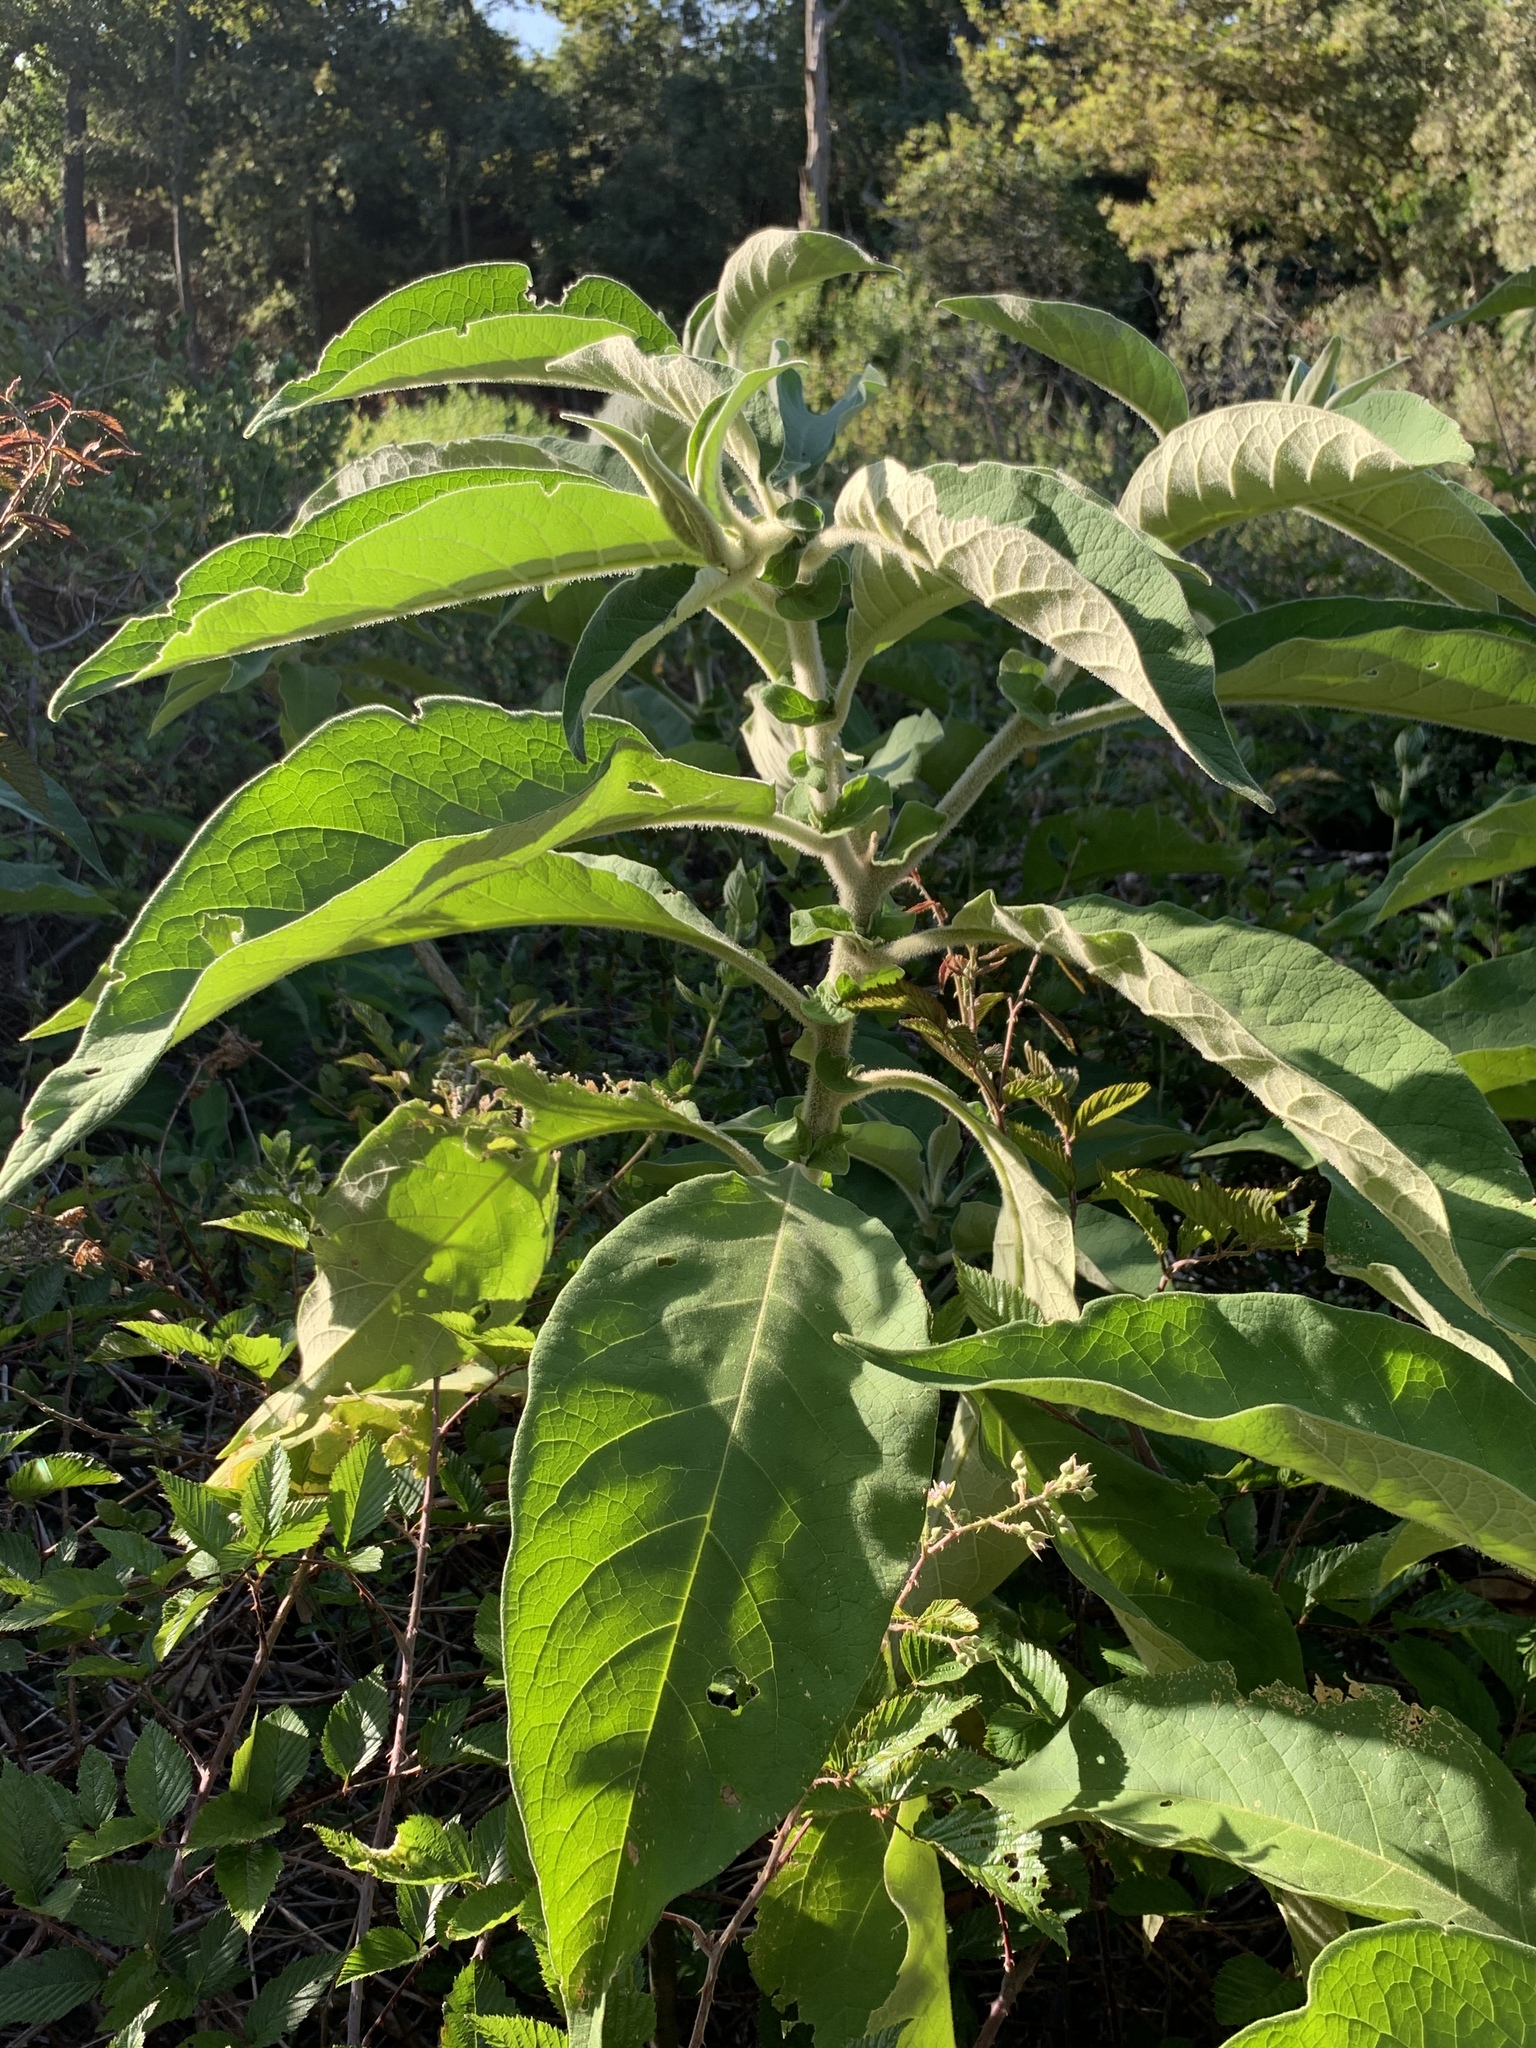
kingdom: Plantae
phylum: Tracheophyta
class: Magnoliopsida
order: Solanales
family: Solanaceae
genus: Solanum
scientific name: Solanum mauritianum
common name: Earleaf nightshade
